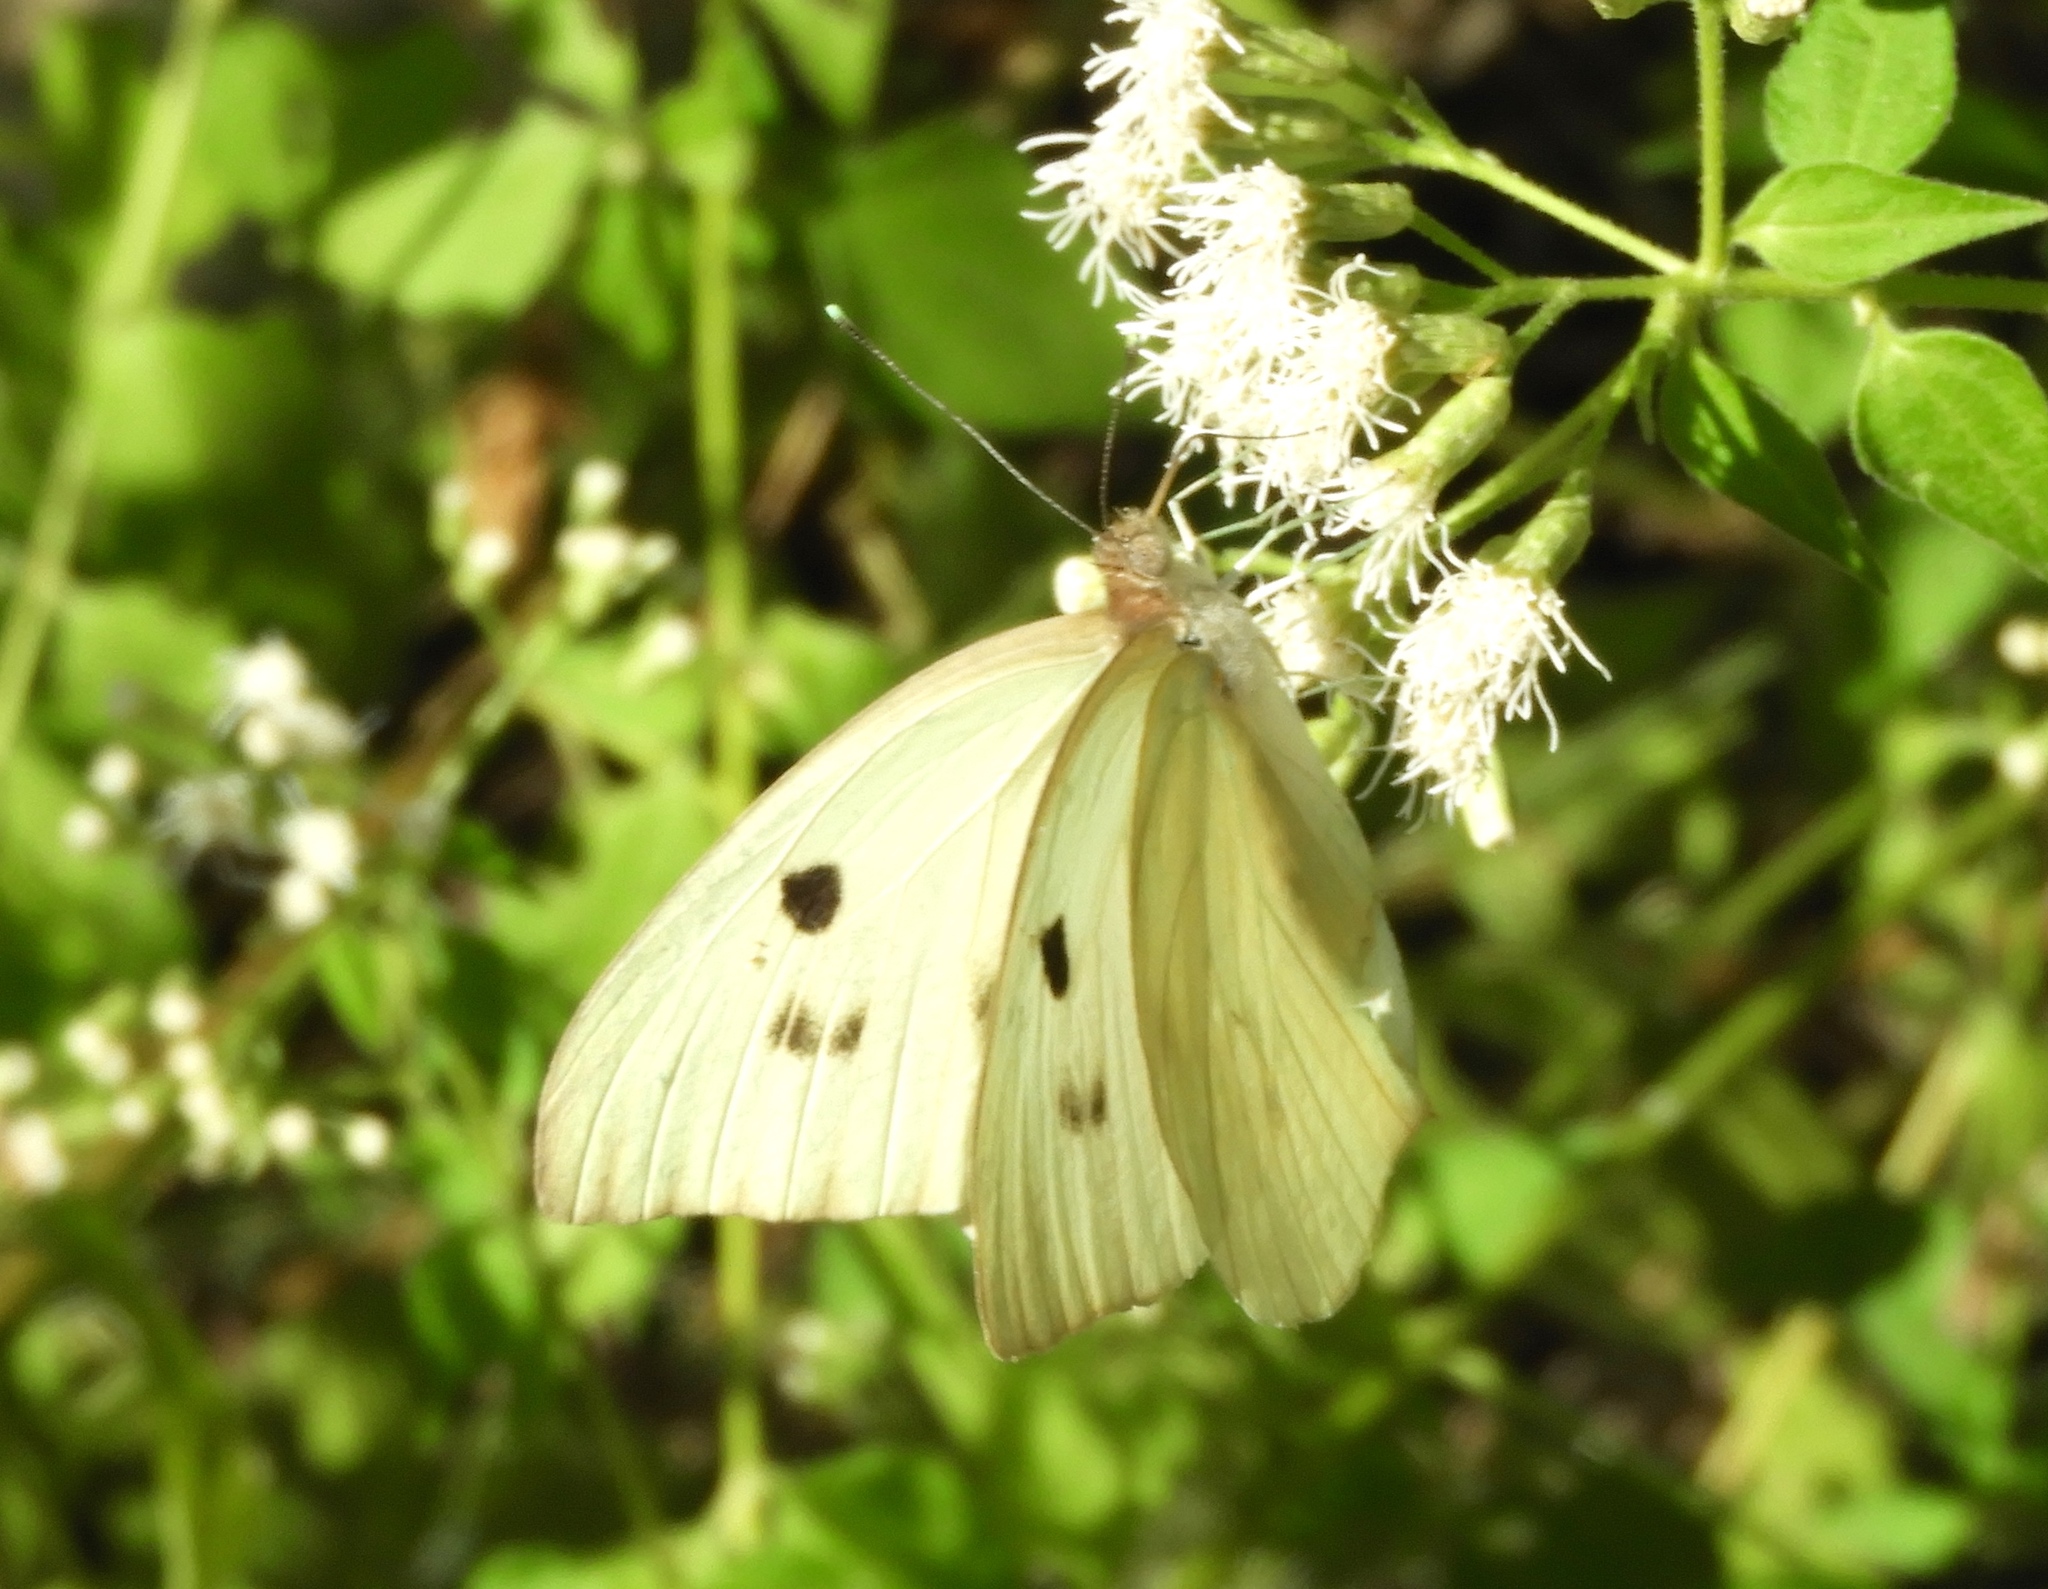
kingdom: Animalia
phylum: Arthropoda
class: Insecta
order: Lepidoptera
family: Pieridae
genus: Ganyra
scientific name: Ganyra josephina
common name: Giant white
